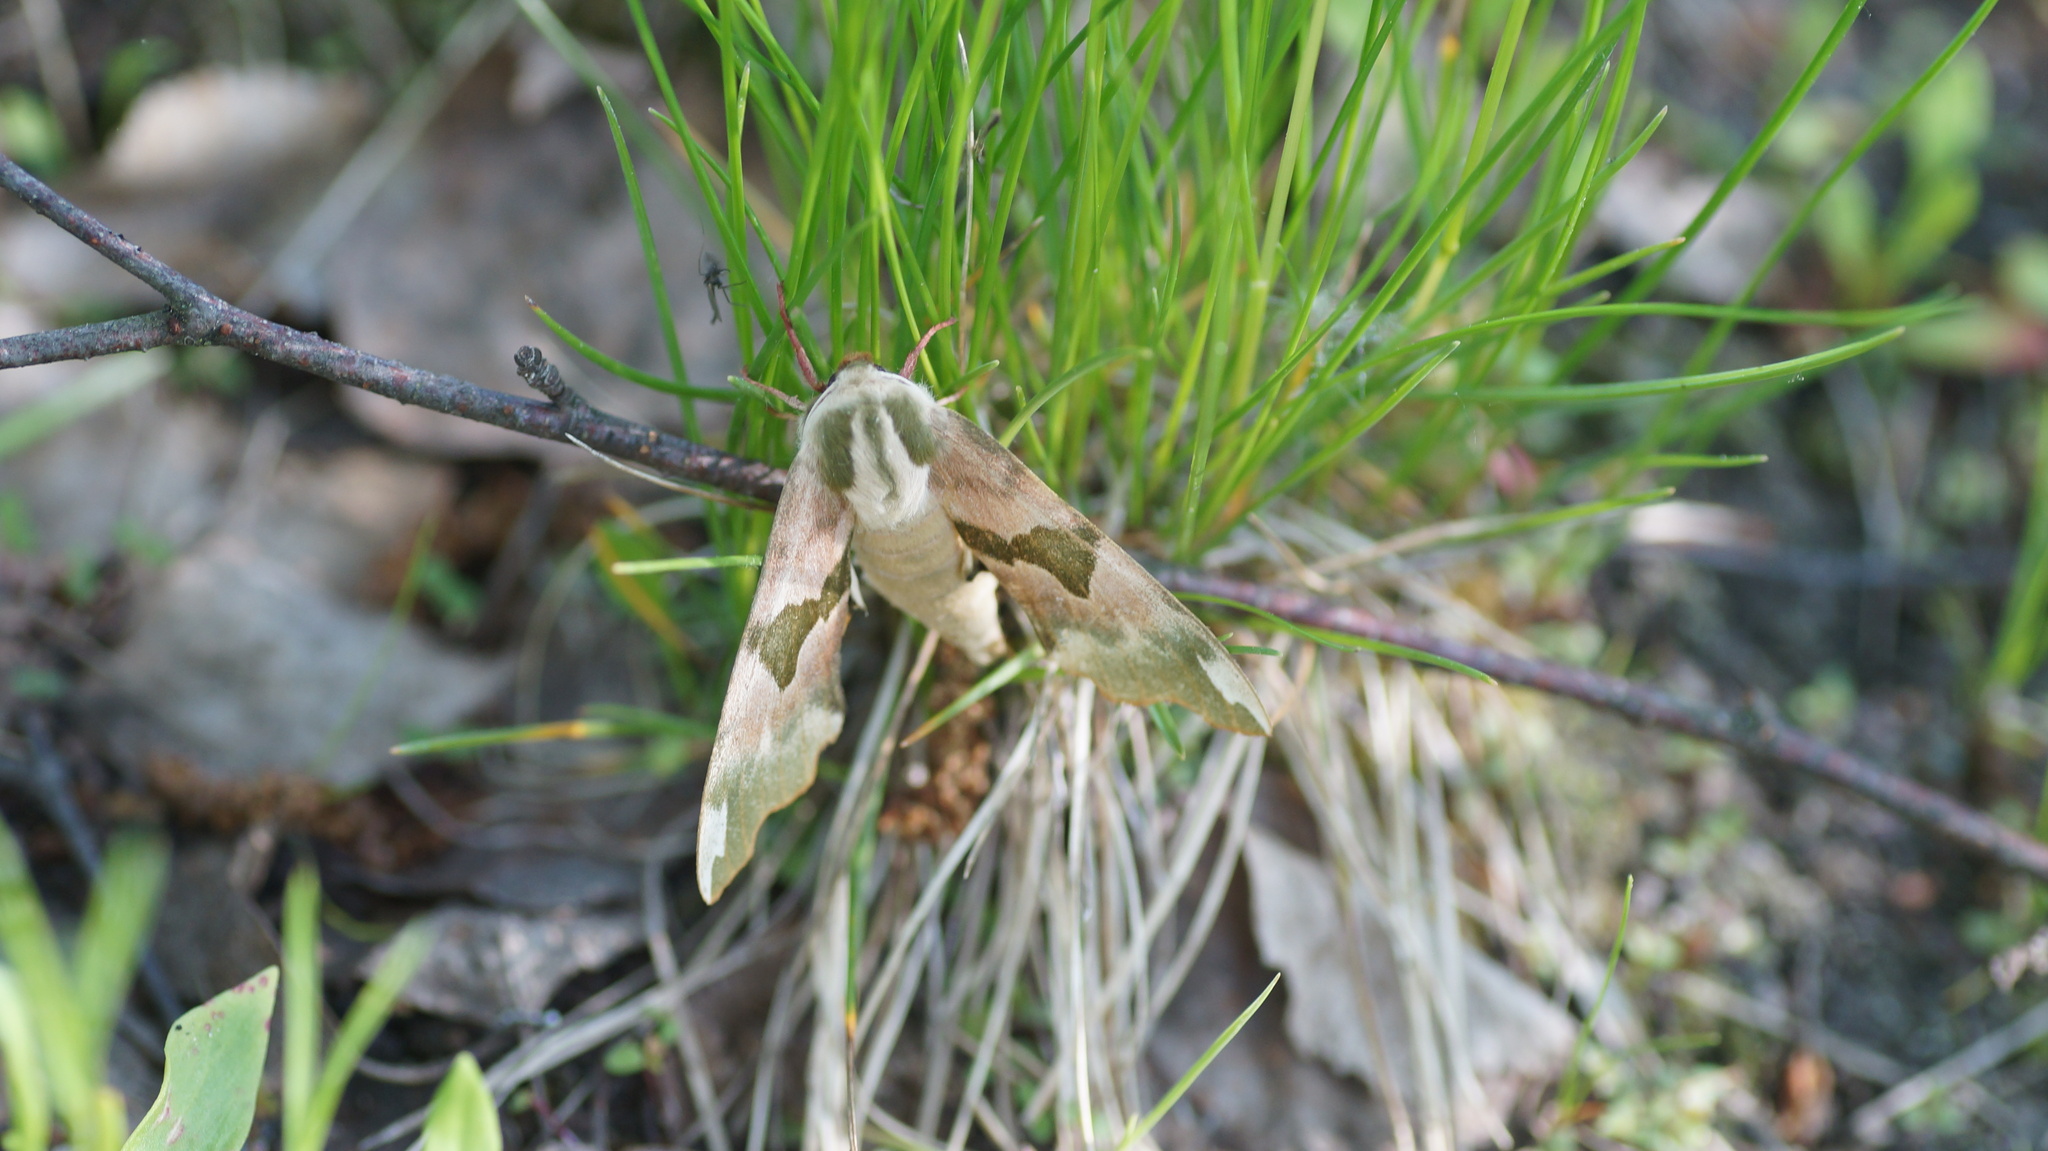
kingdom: Animalia
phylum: Arthropoda
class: Insecta
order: Lepidoptera
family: Sphingidae
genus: Mimas
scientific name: Mimas tiliae
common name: Lime hawk-moth
